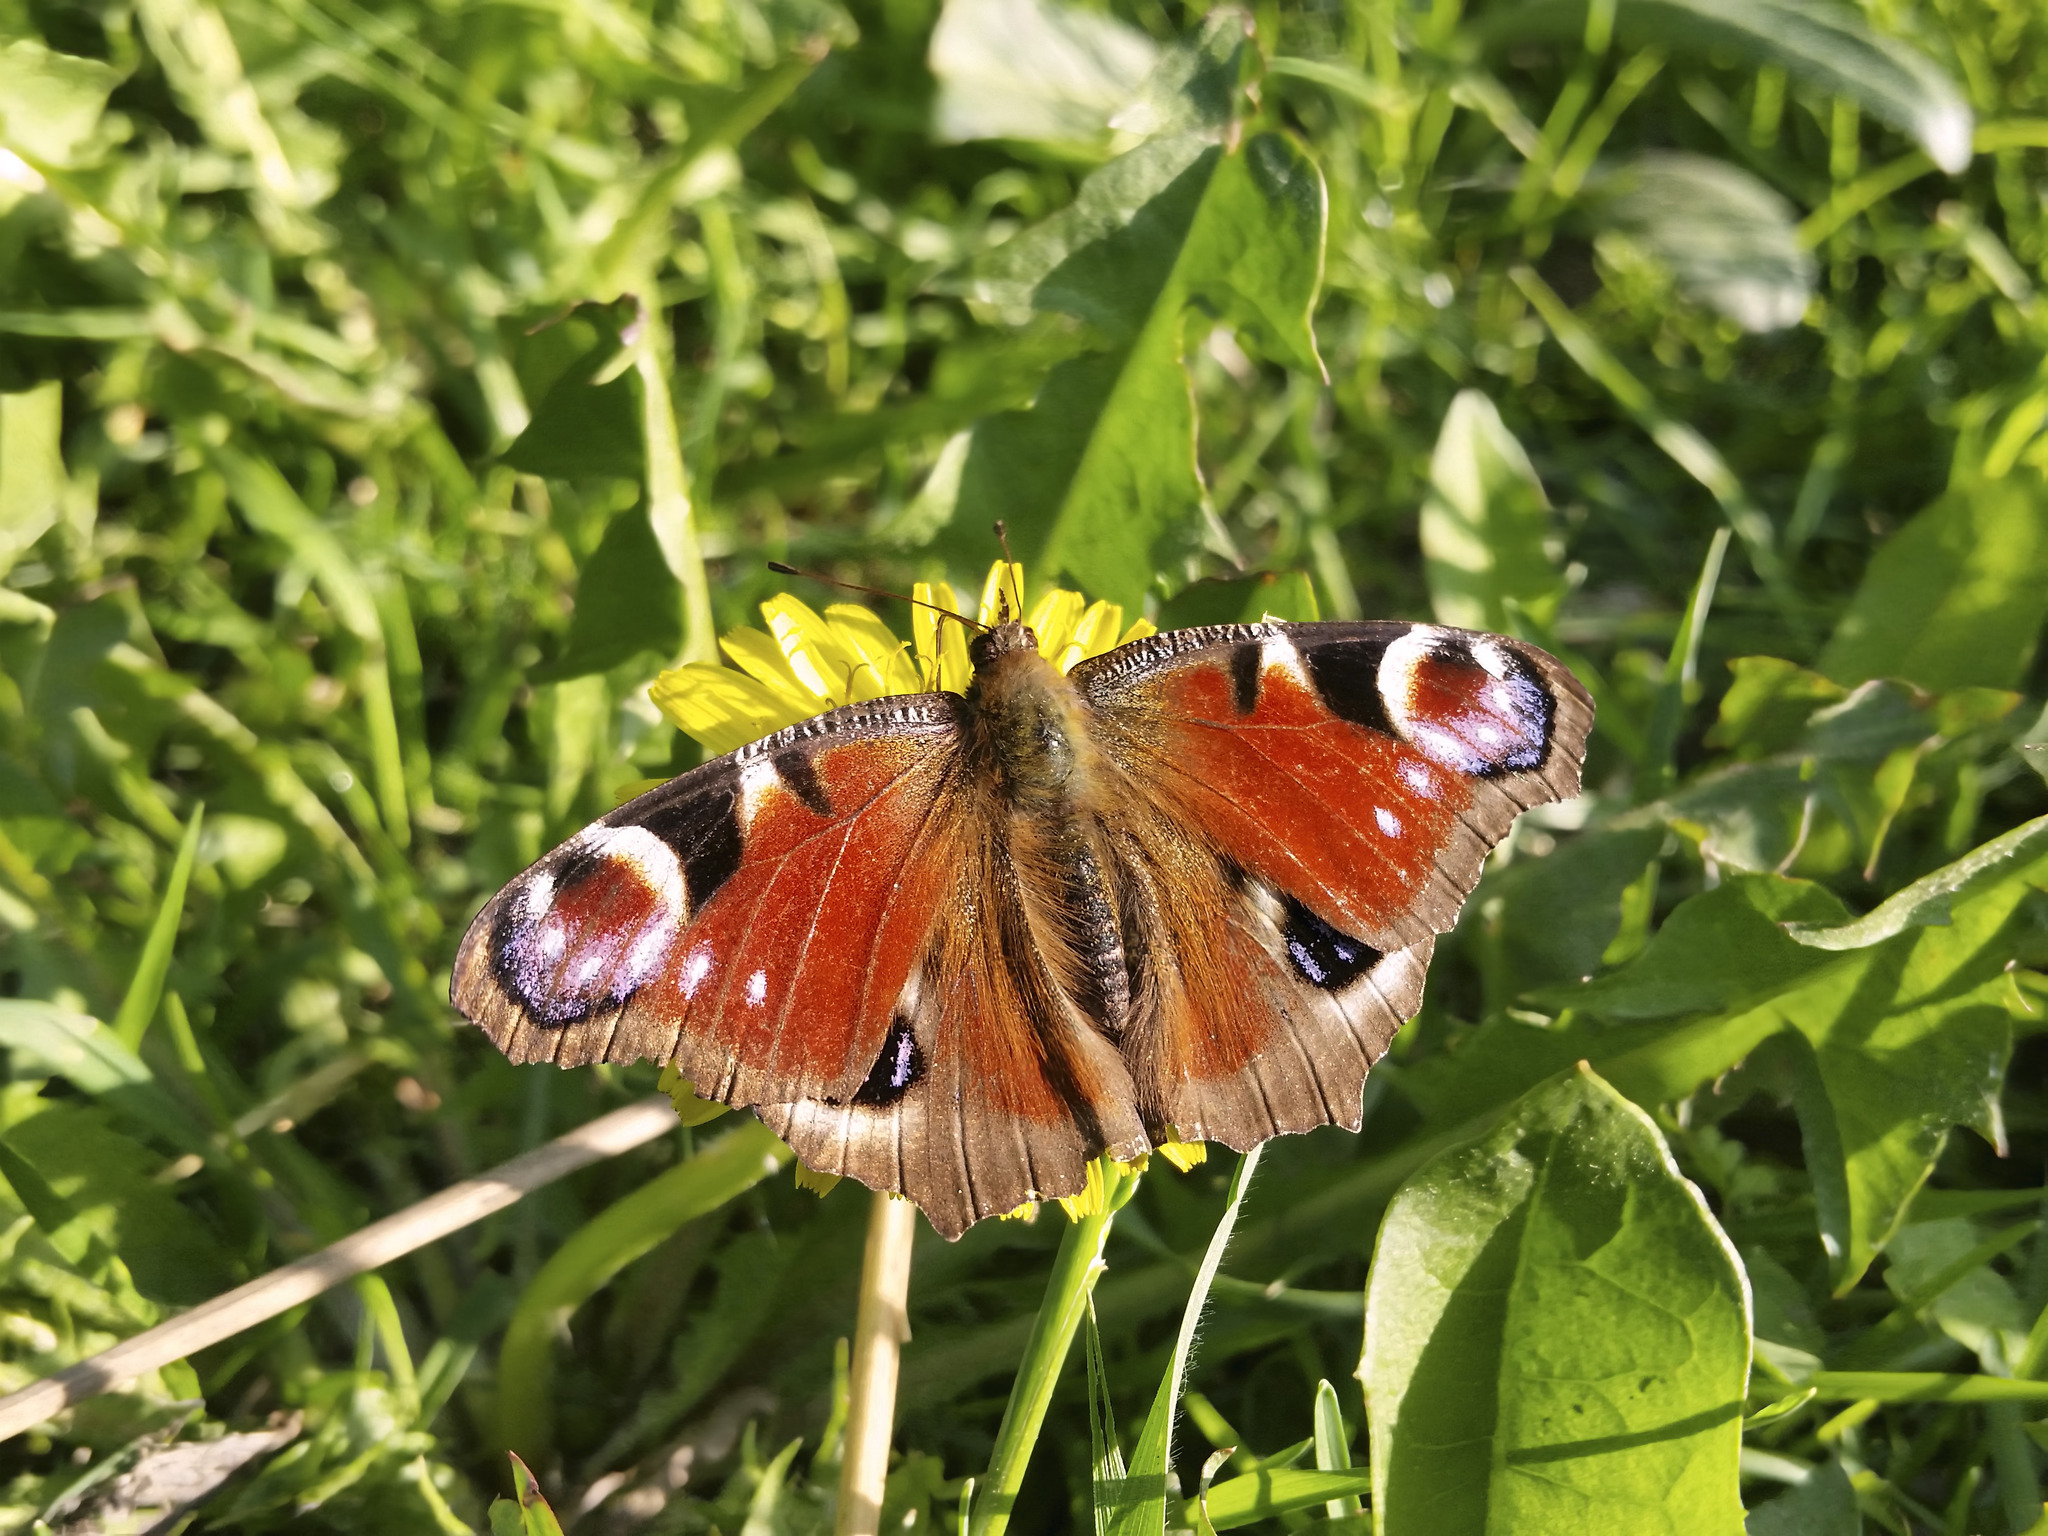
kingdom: Animalia
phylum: Arthropoda
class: Insecta
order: Lepidoptera
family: Nymphalidae
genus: Aglais
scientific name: Aglais io
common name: Peacock
